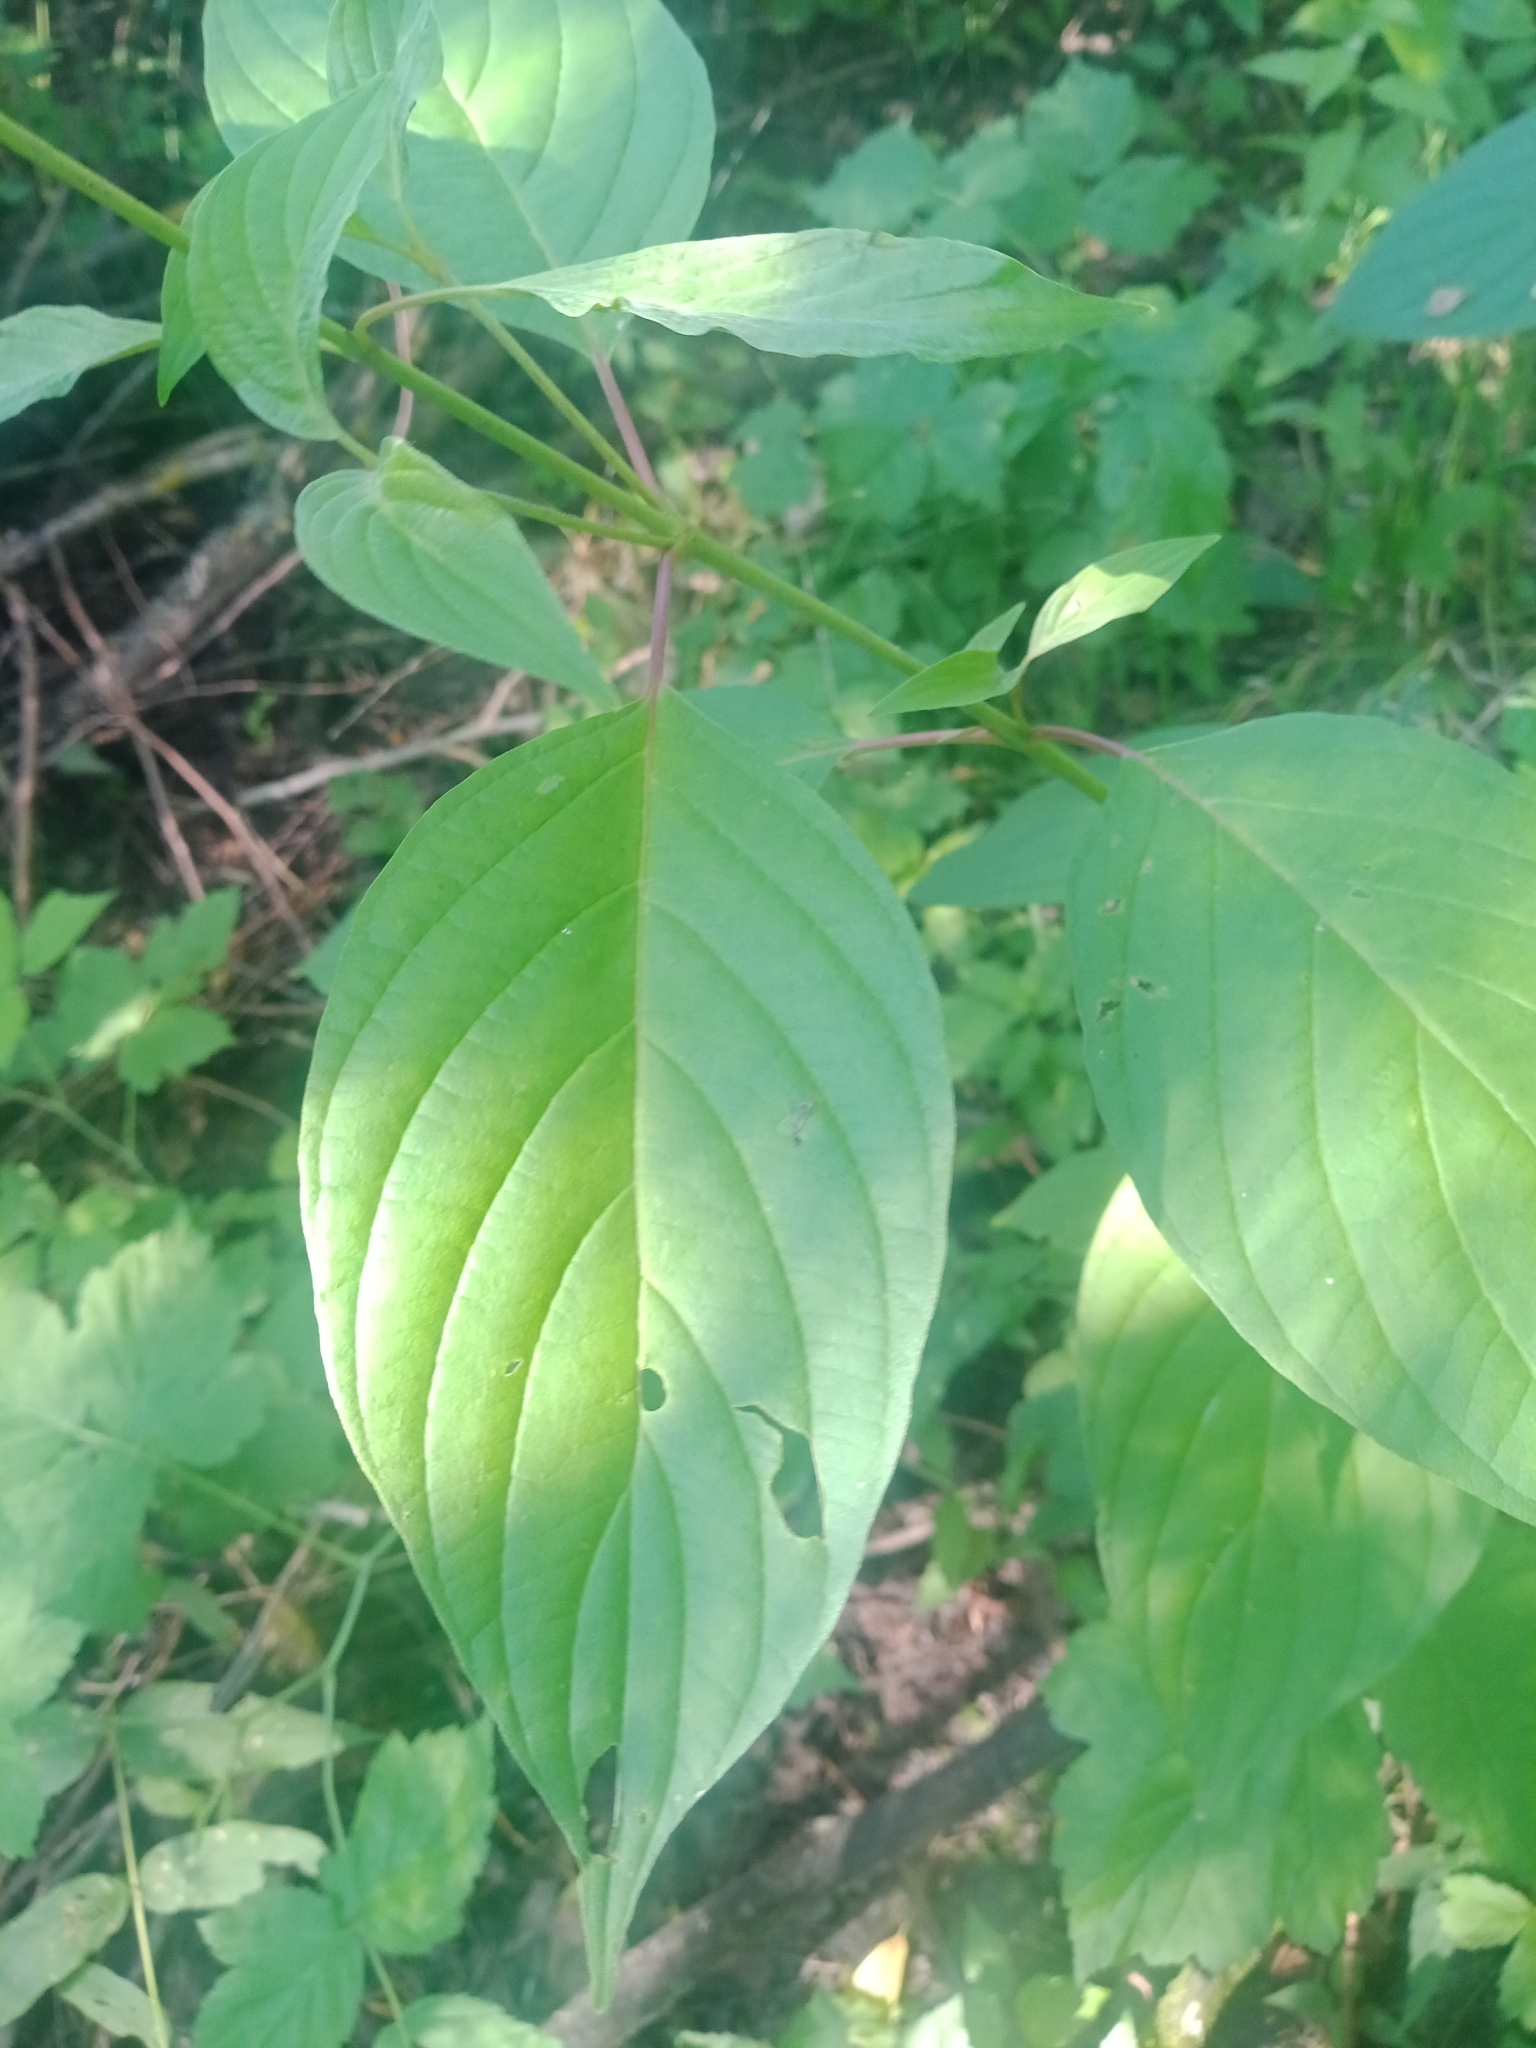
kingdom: Plantae
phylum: Tracheophyta
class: Magnoliopsida
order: Cornales
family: Cornaceae
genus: Cornus
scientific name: Cornus alba
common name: White dogwood
